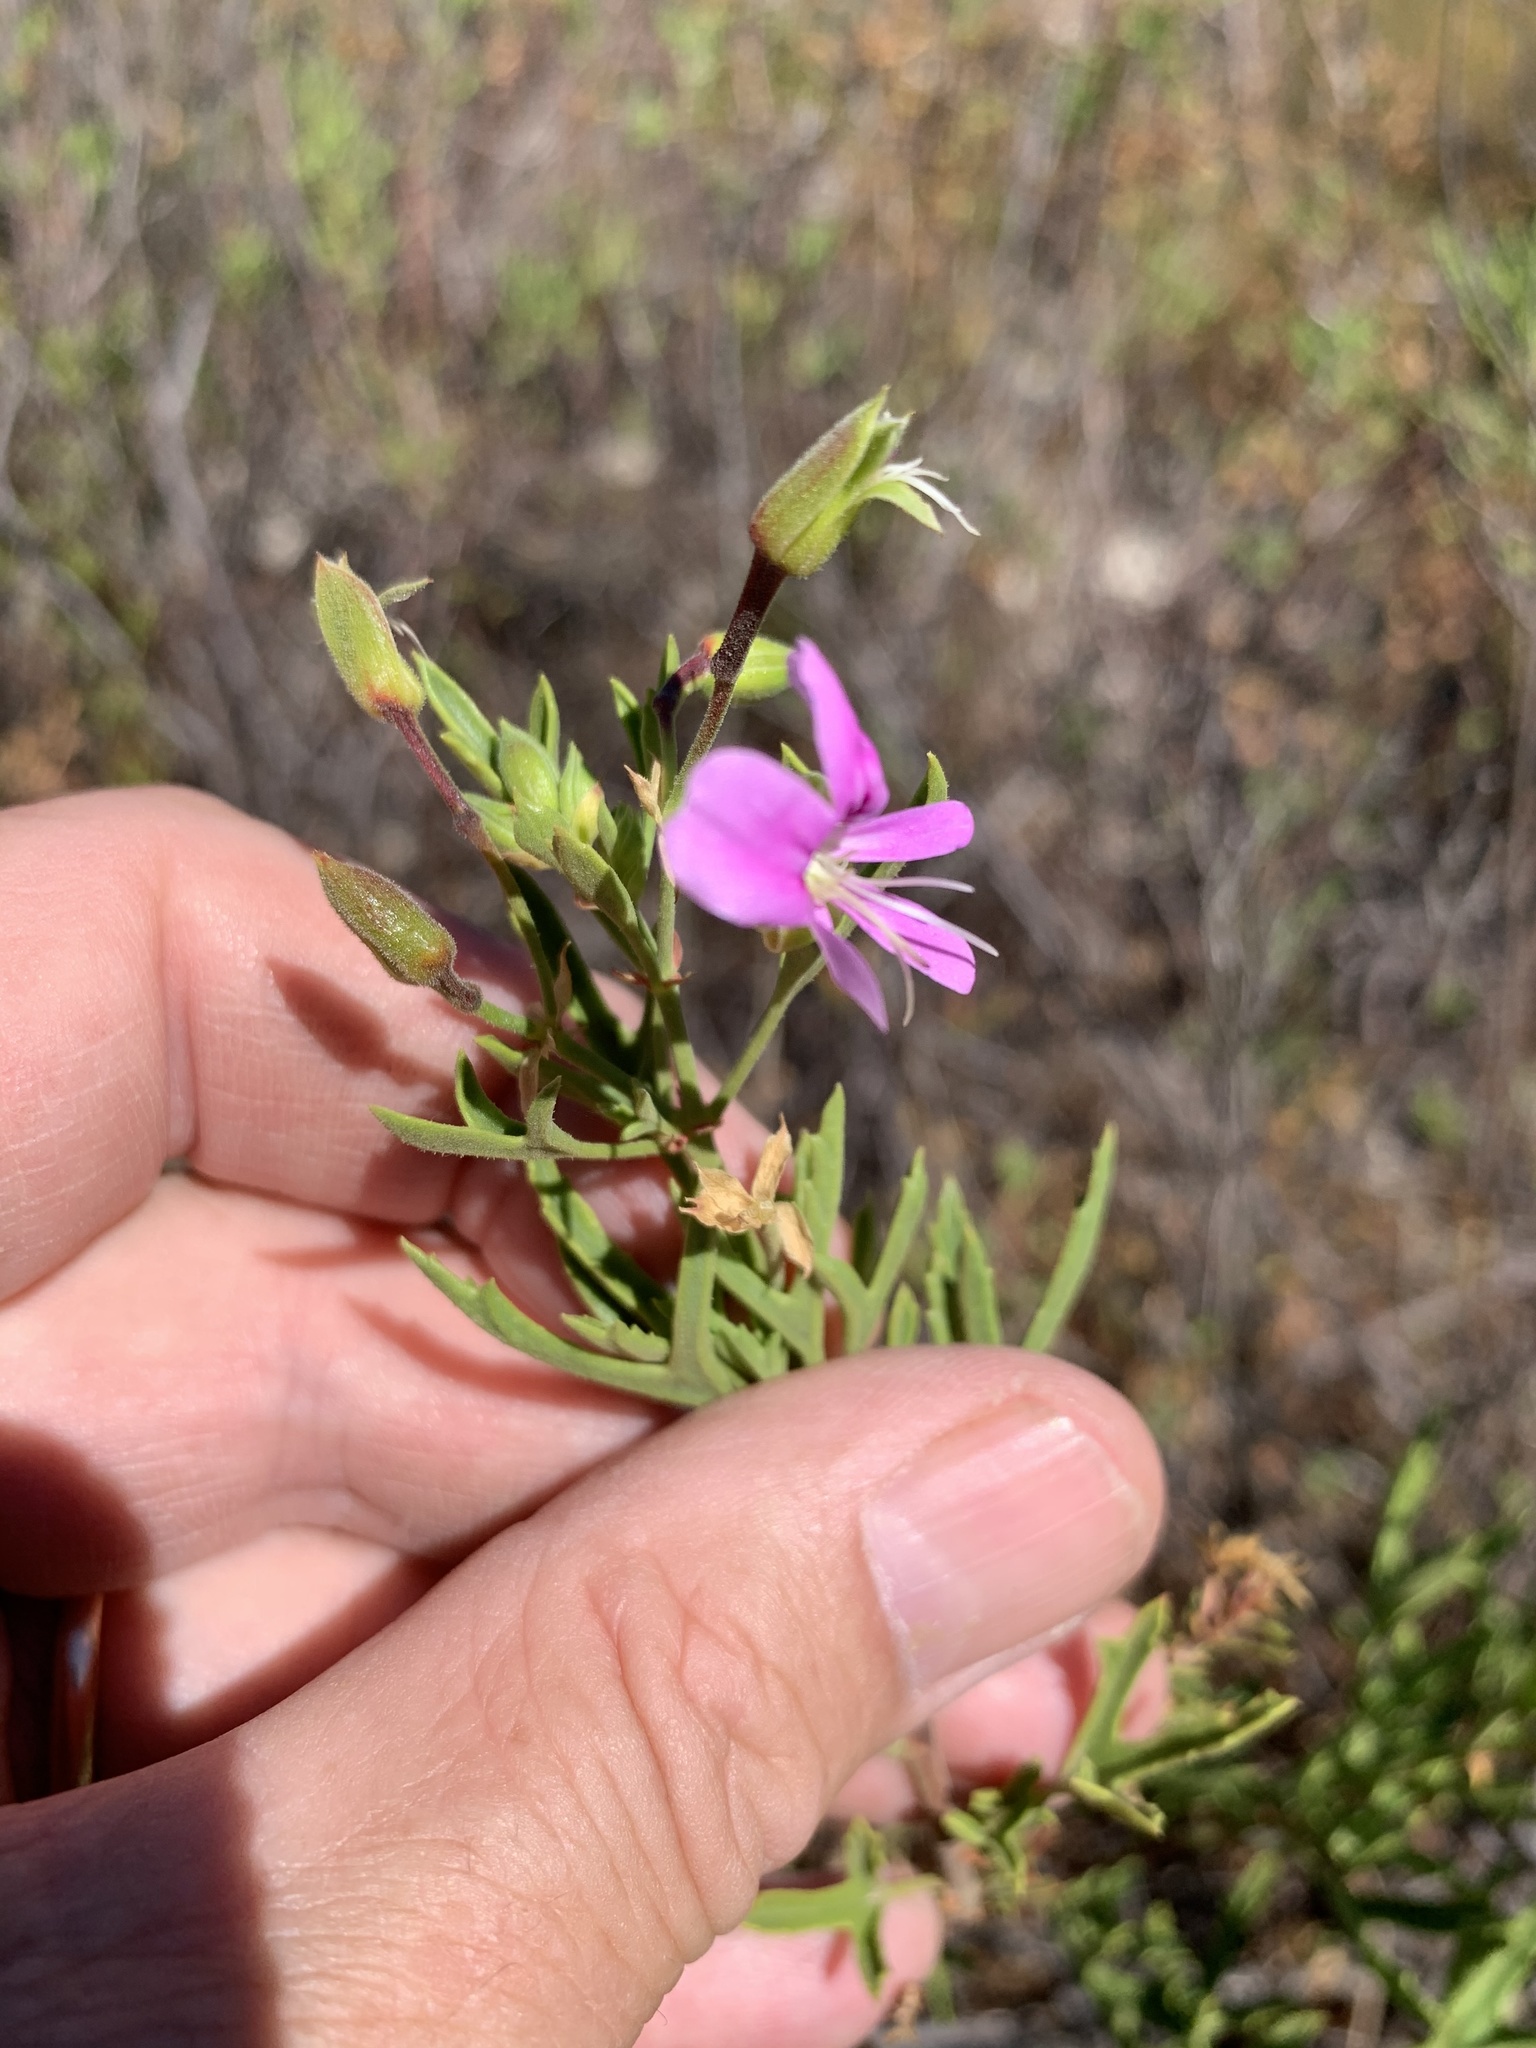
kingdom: Plantae
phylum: Tracheophyta
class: Magnoliopsida
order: Geraniales
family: Geraniaceae
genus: Pelargonium
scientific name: Pelargonium scabrum
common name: Apricot geranium
